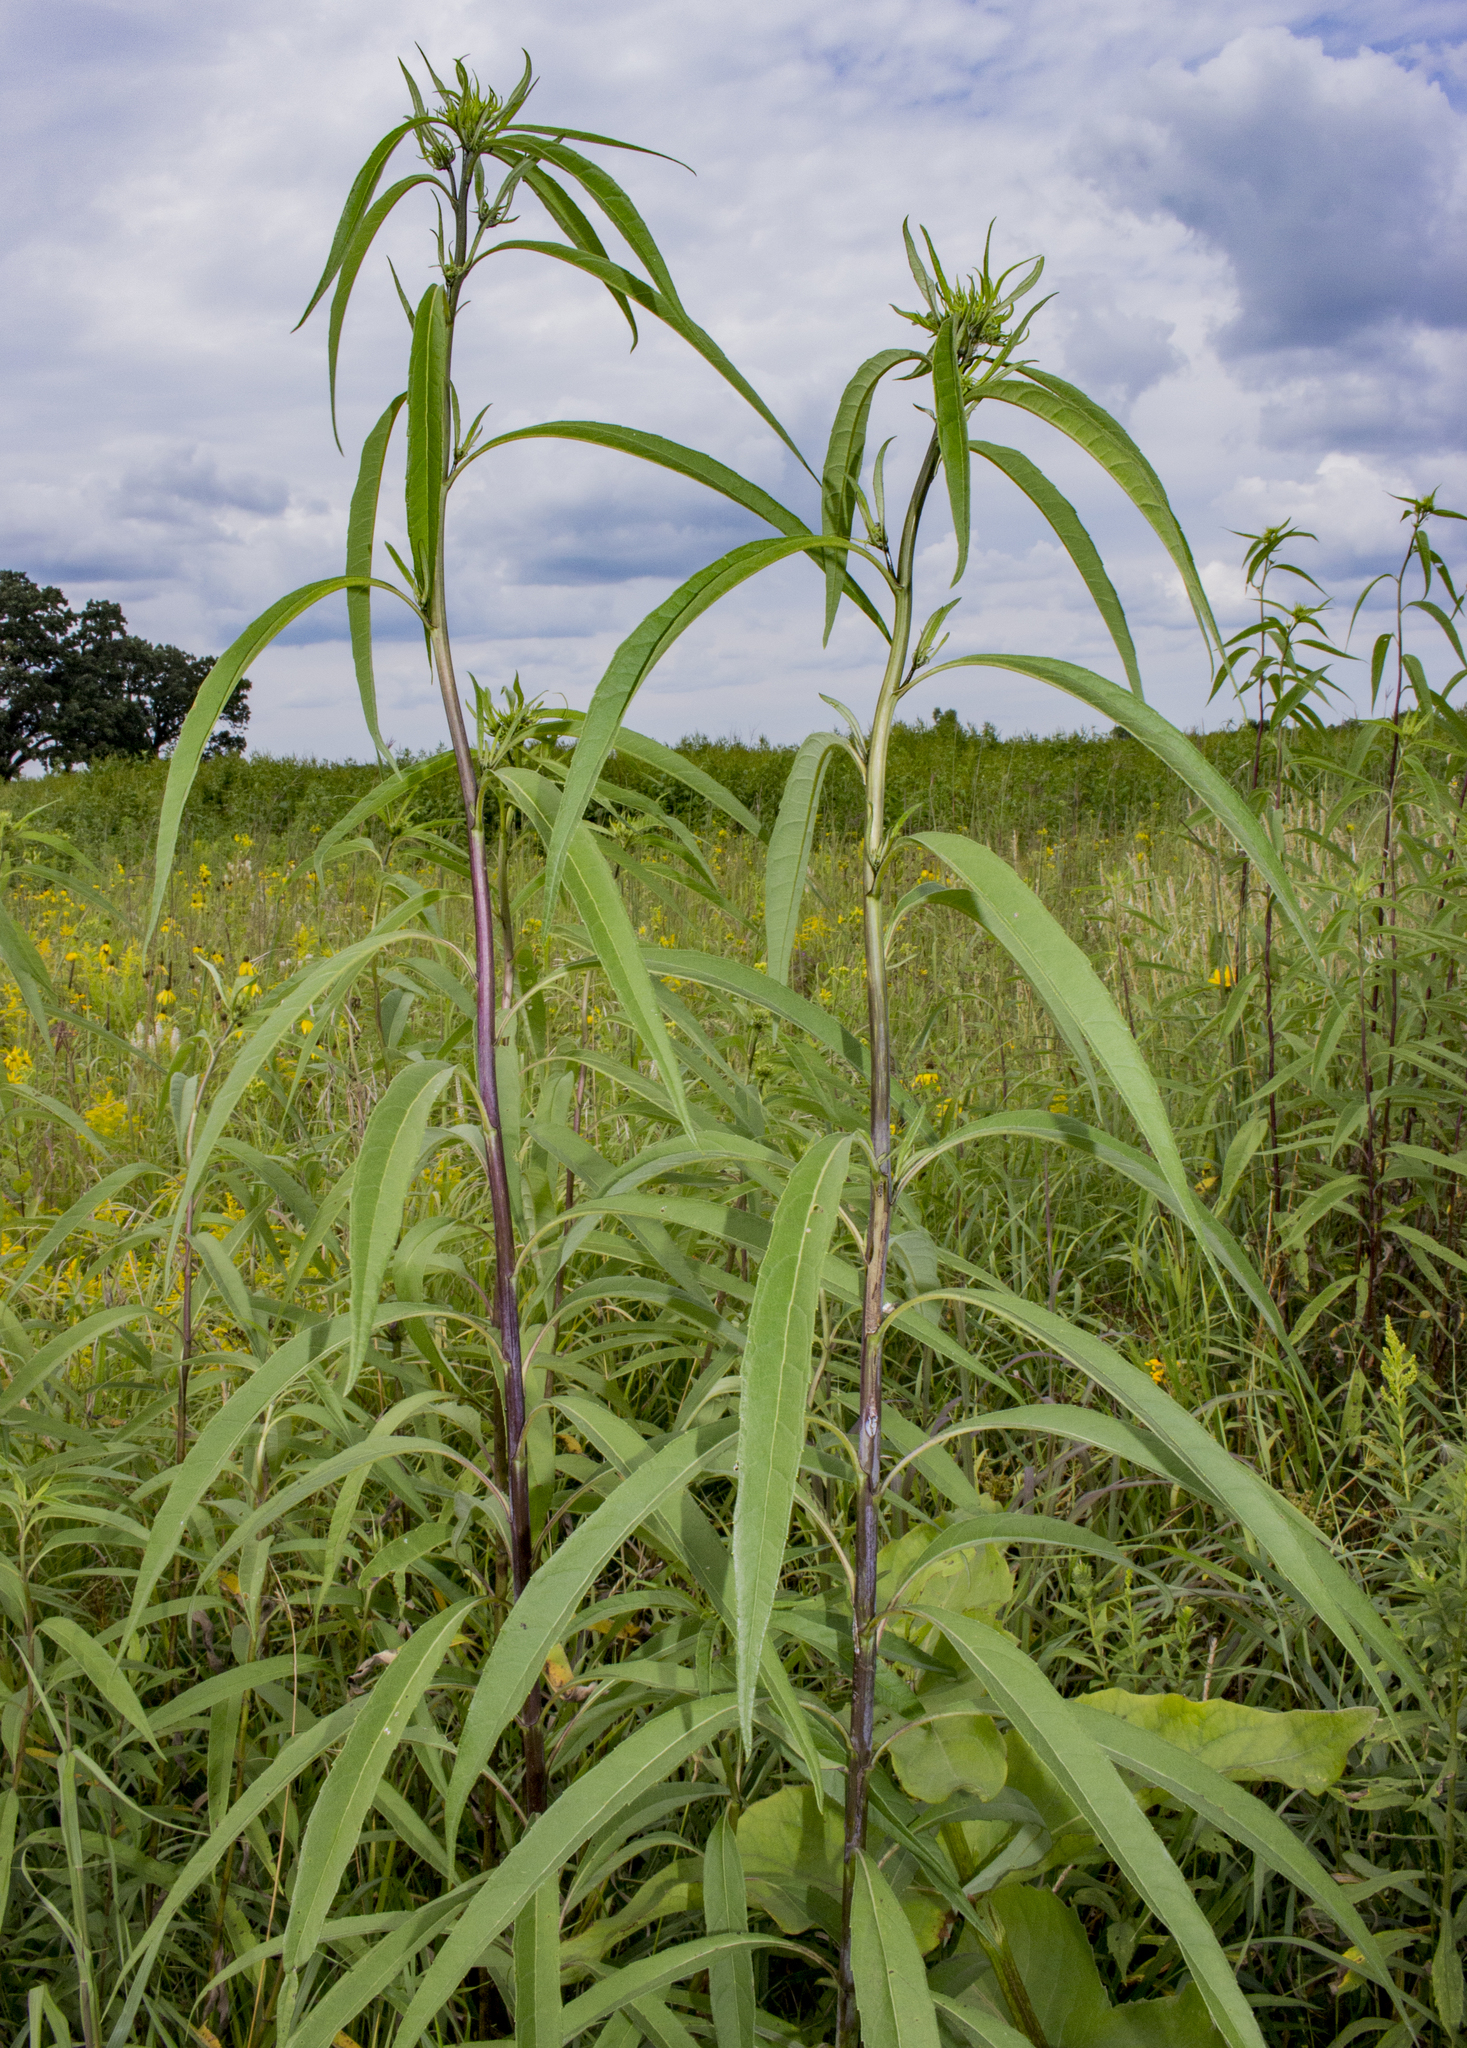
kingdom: Plantae
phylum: Tracheophyta
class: Magnoliopsida
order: Asterales
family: Asteraceae
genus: Helianthus
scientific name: Helianthus grosseserratus
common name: Sawtooth sunflower
